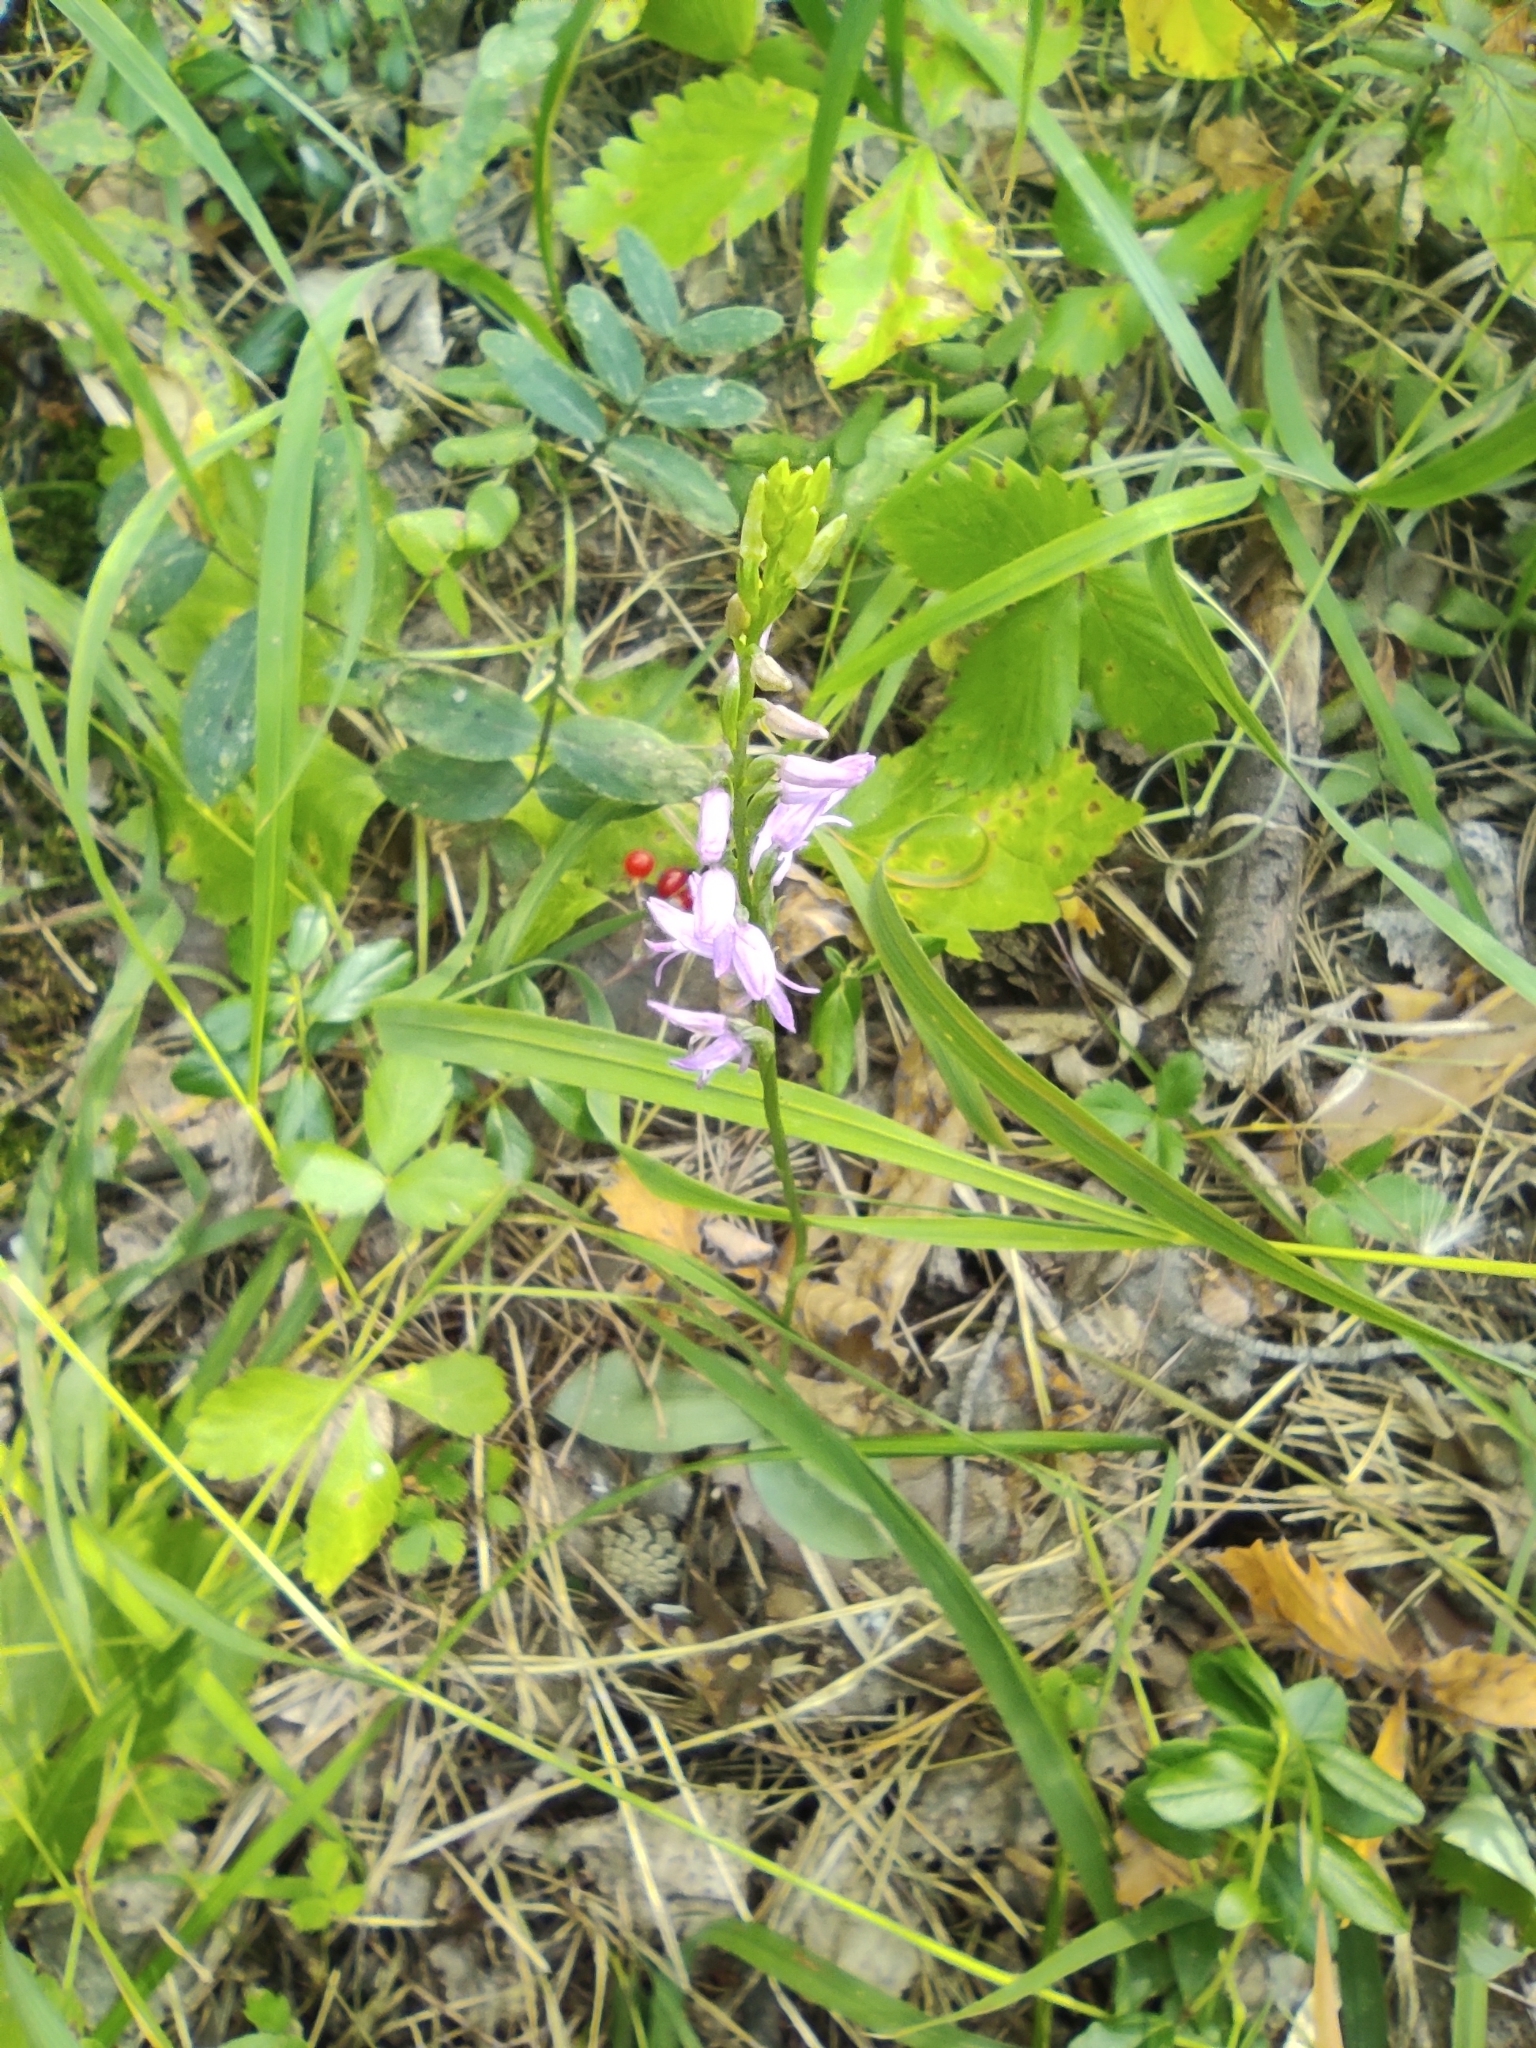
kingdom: Plantae
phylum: Tracheophyta
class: Liliopsida
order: Asparagales
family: Orchidaceae
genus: Hemipilia
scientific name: Hemipilia cucullata
